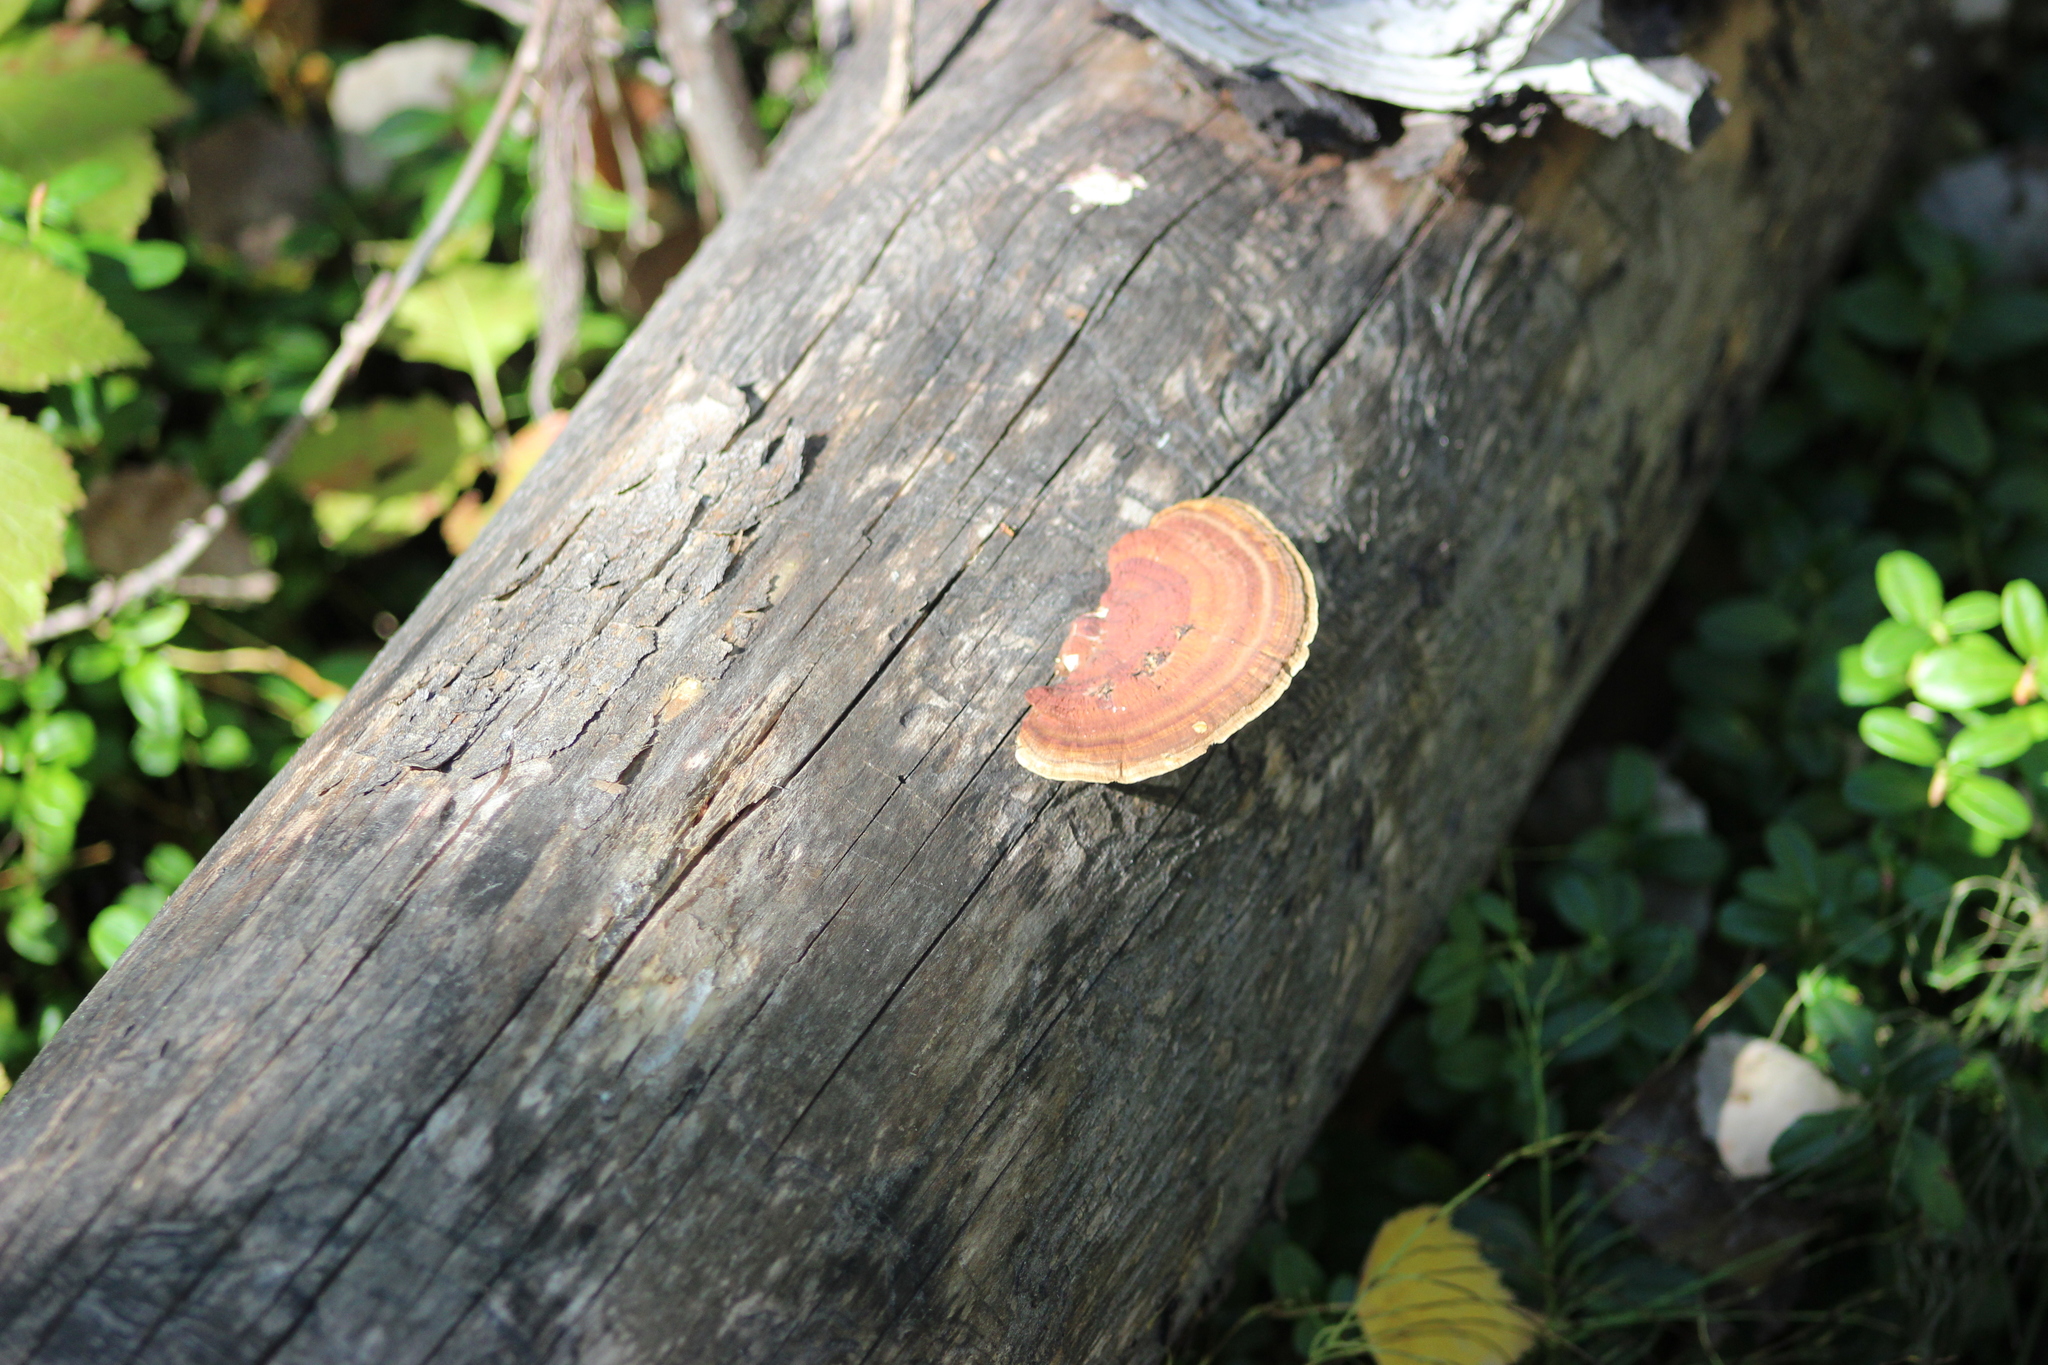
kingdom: Fungi
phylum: Basidiomycota
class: Agaricomycetes
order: Polyporales
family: Polyporaceae
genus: Daedaleopsis
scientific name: Daedaleopsis tricolor
